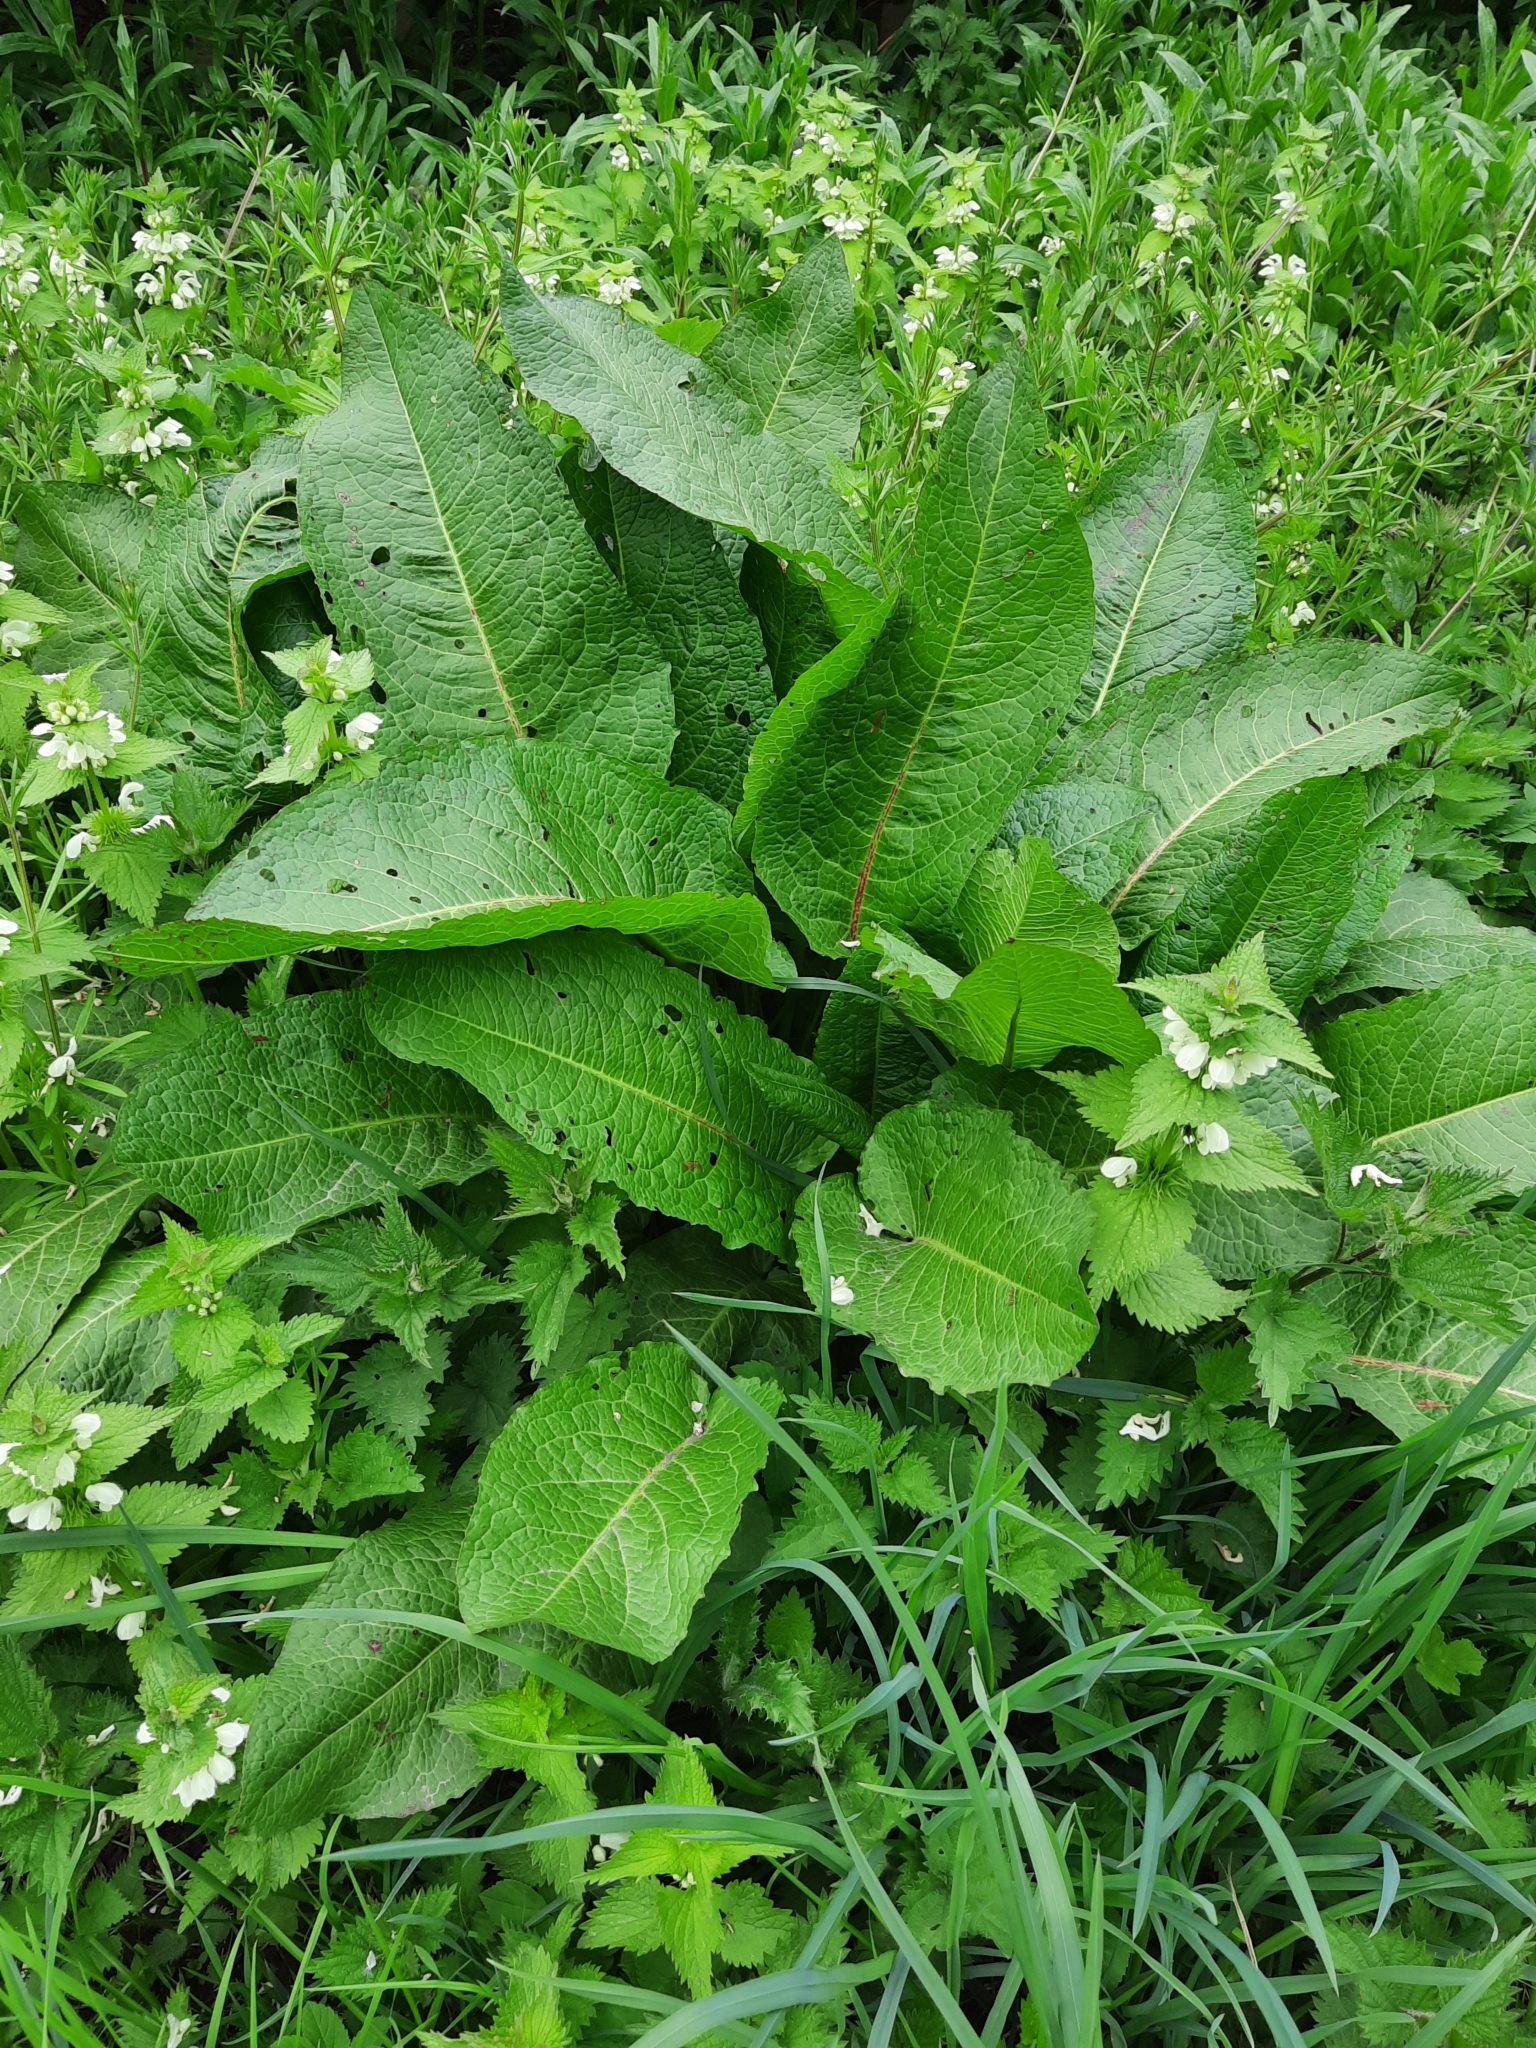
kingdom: Plantae
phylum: Tracheophyta
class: Magnoliopsida
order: Caryophyllales
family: Polygonaceae
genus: Rumex
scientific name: Rumex obtusifolius
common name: Bitter dock
